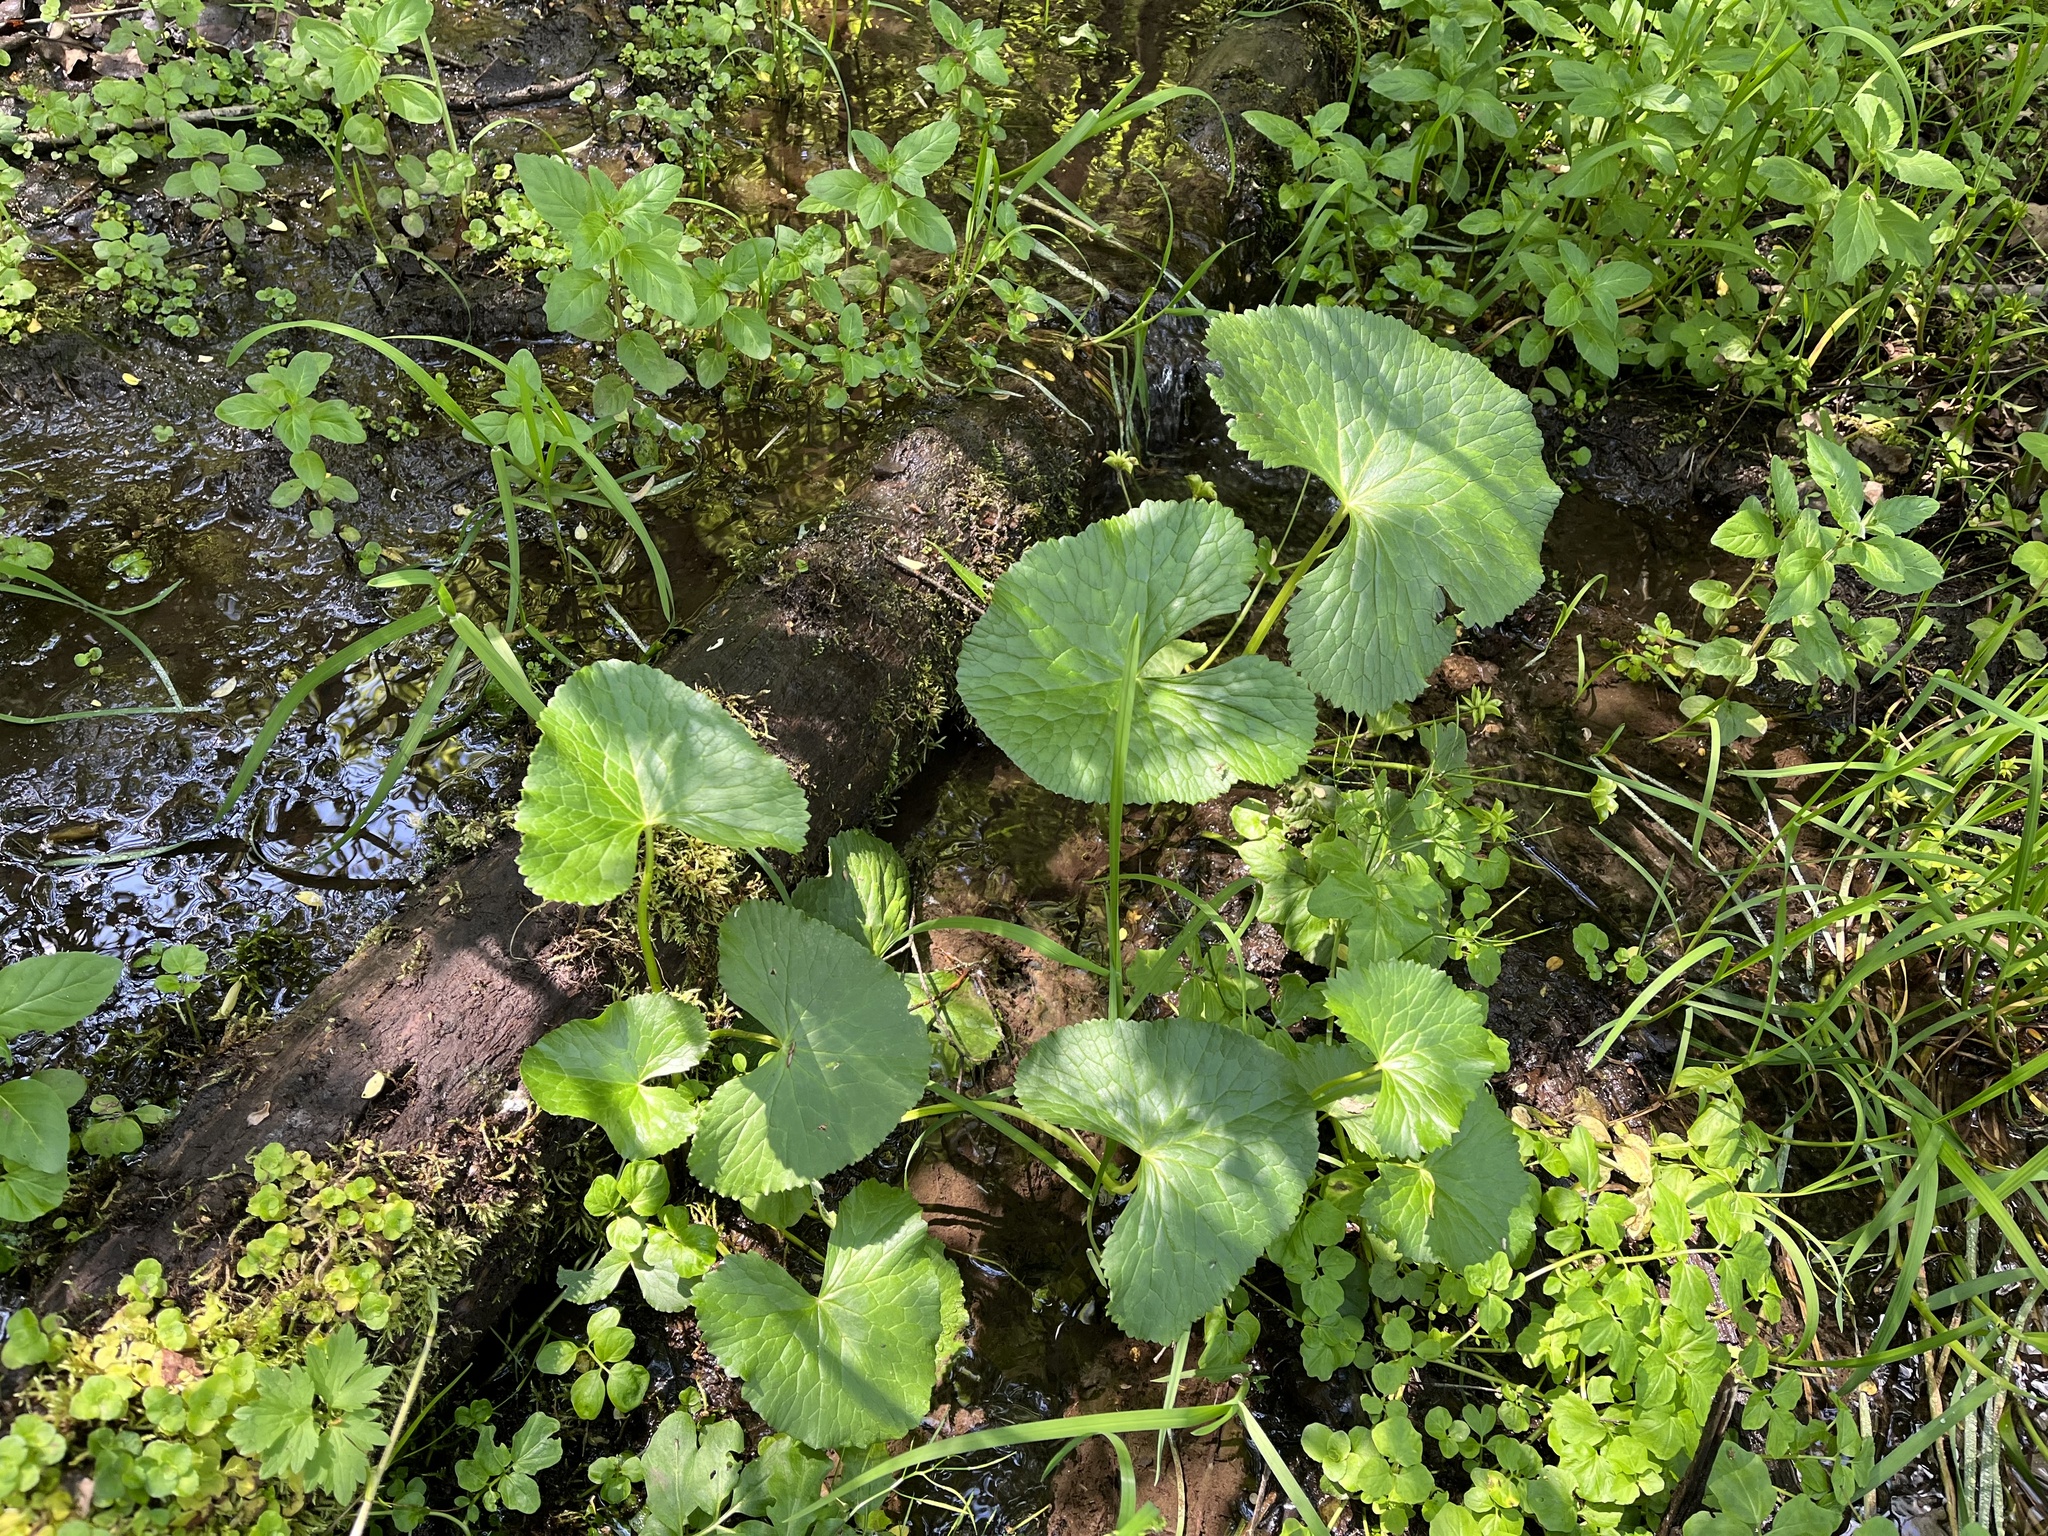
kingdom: Plantae
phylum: Tracheophyta
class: Magnoliopsida
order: Ranunculales
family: Ranunculaceae
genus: Caltha
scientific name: Caltha palustris
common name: Marsh marigold
